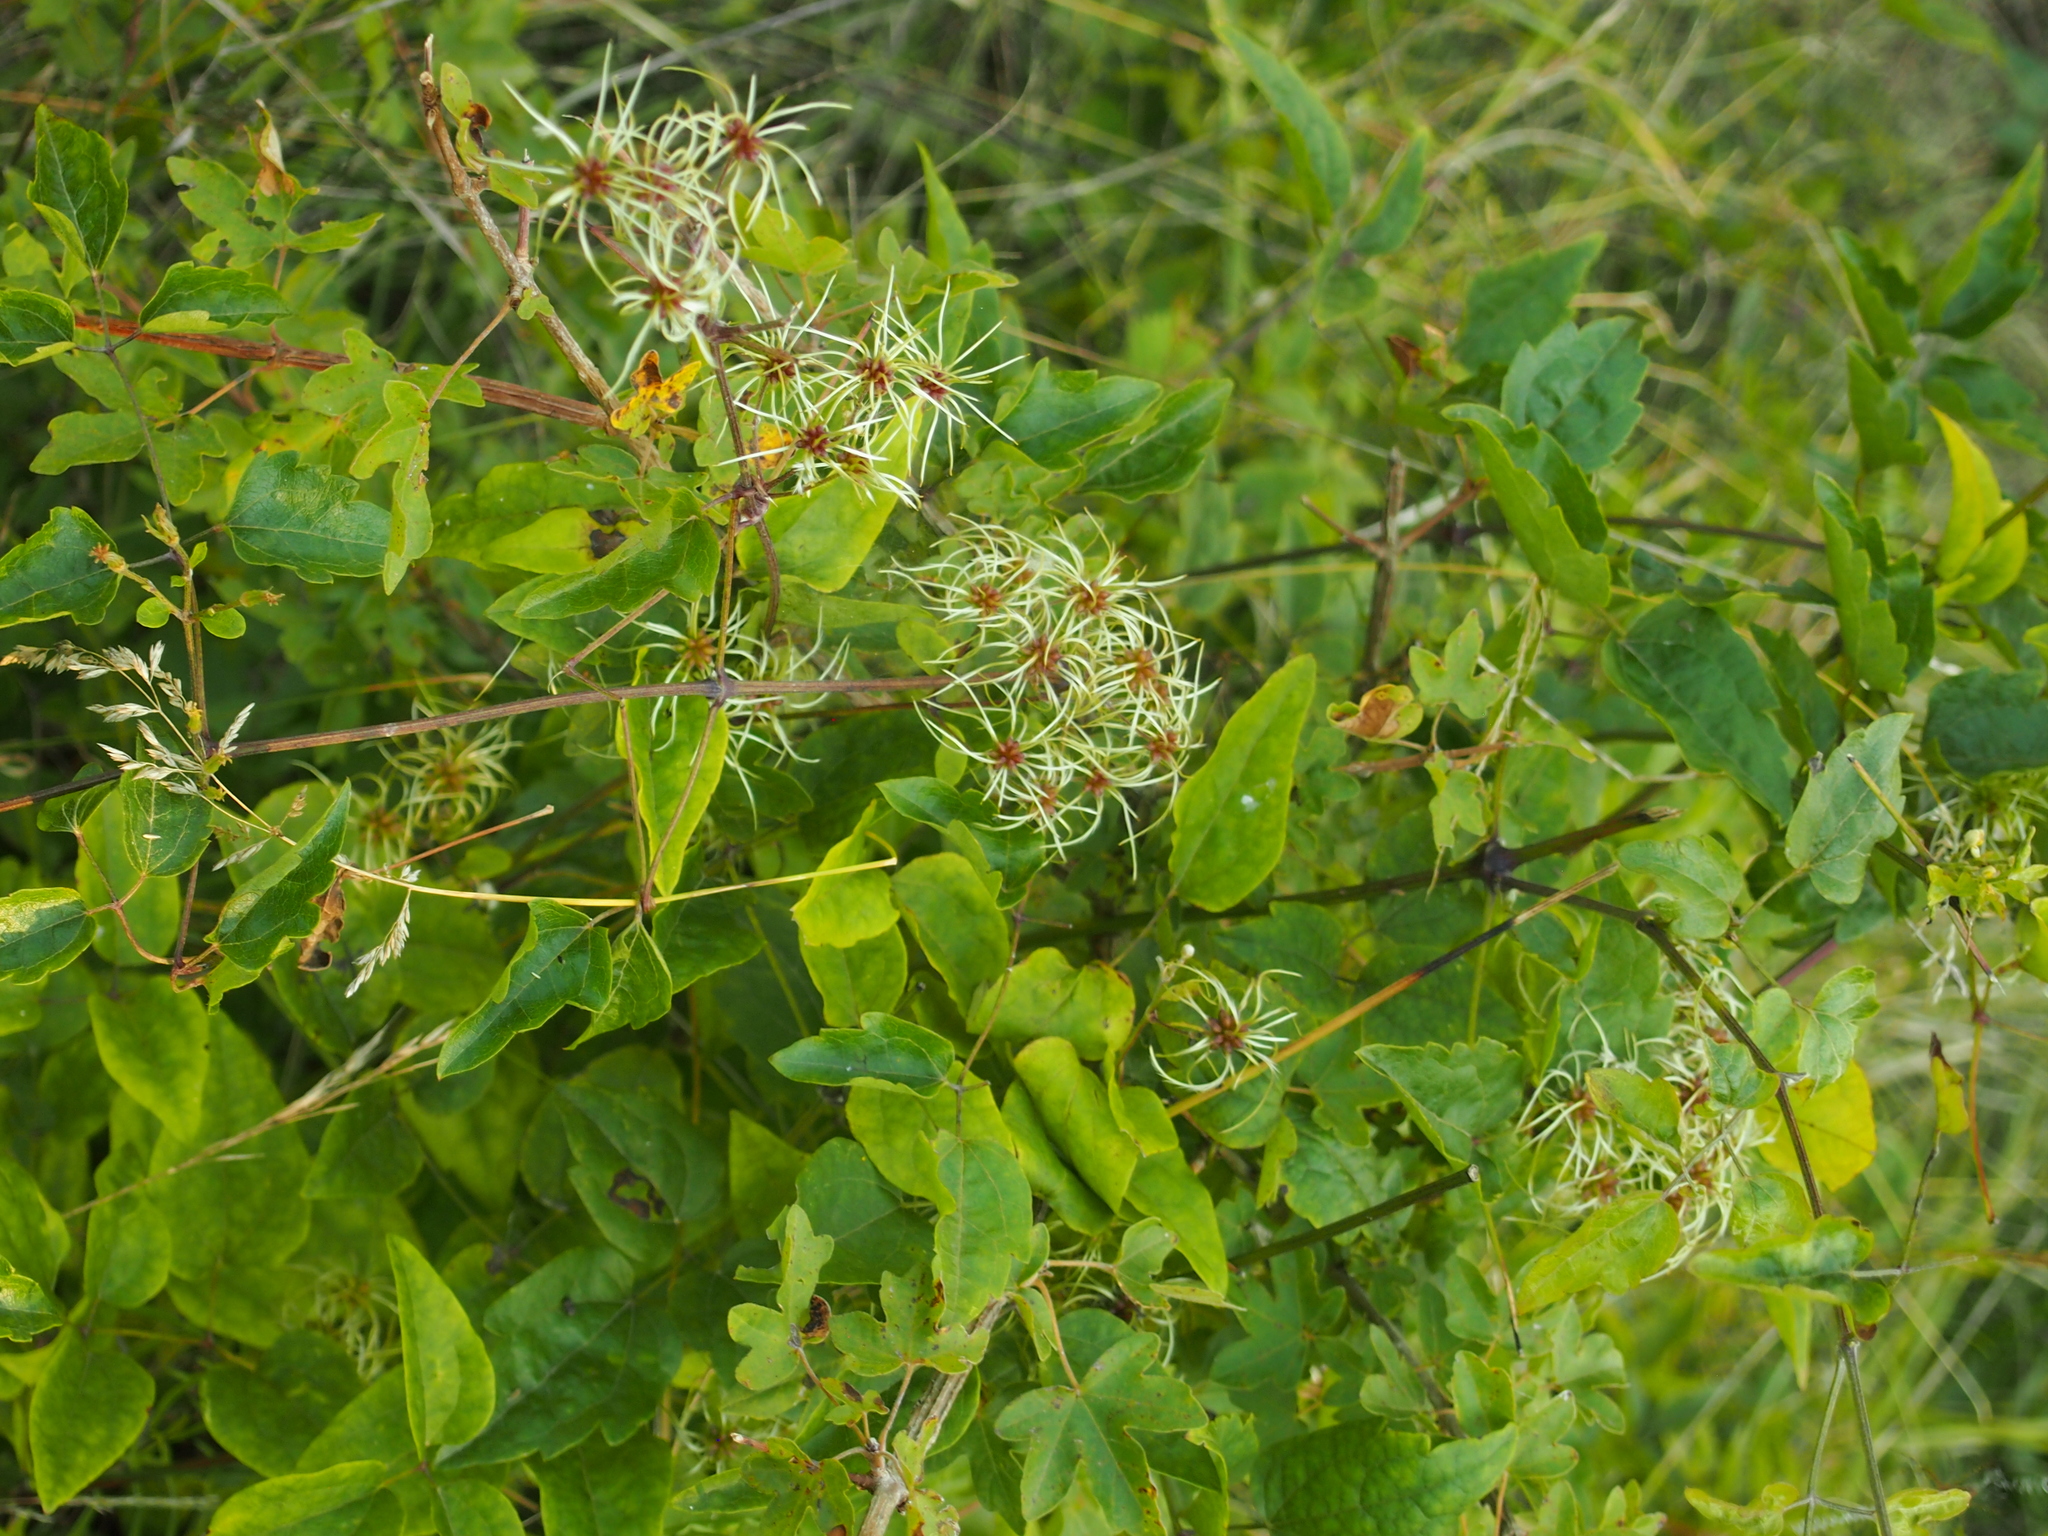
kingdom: Plantae
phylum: Tracheophyta
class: Magnoliopsida
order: Ranunculales
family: Ranunculaceae
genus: Clematis
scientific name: Clematis vitalba
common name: Evergreen clematis
